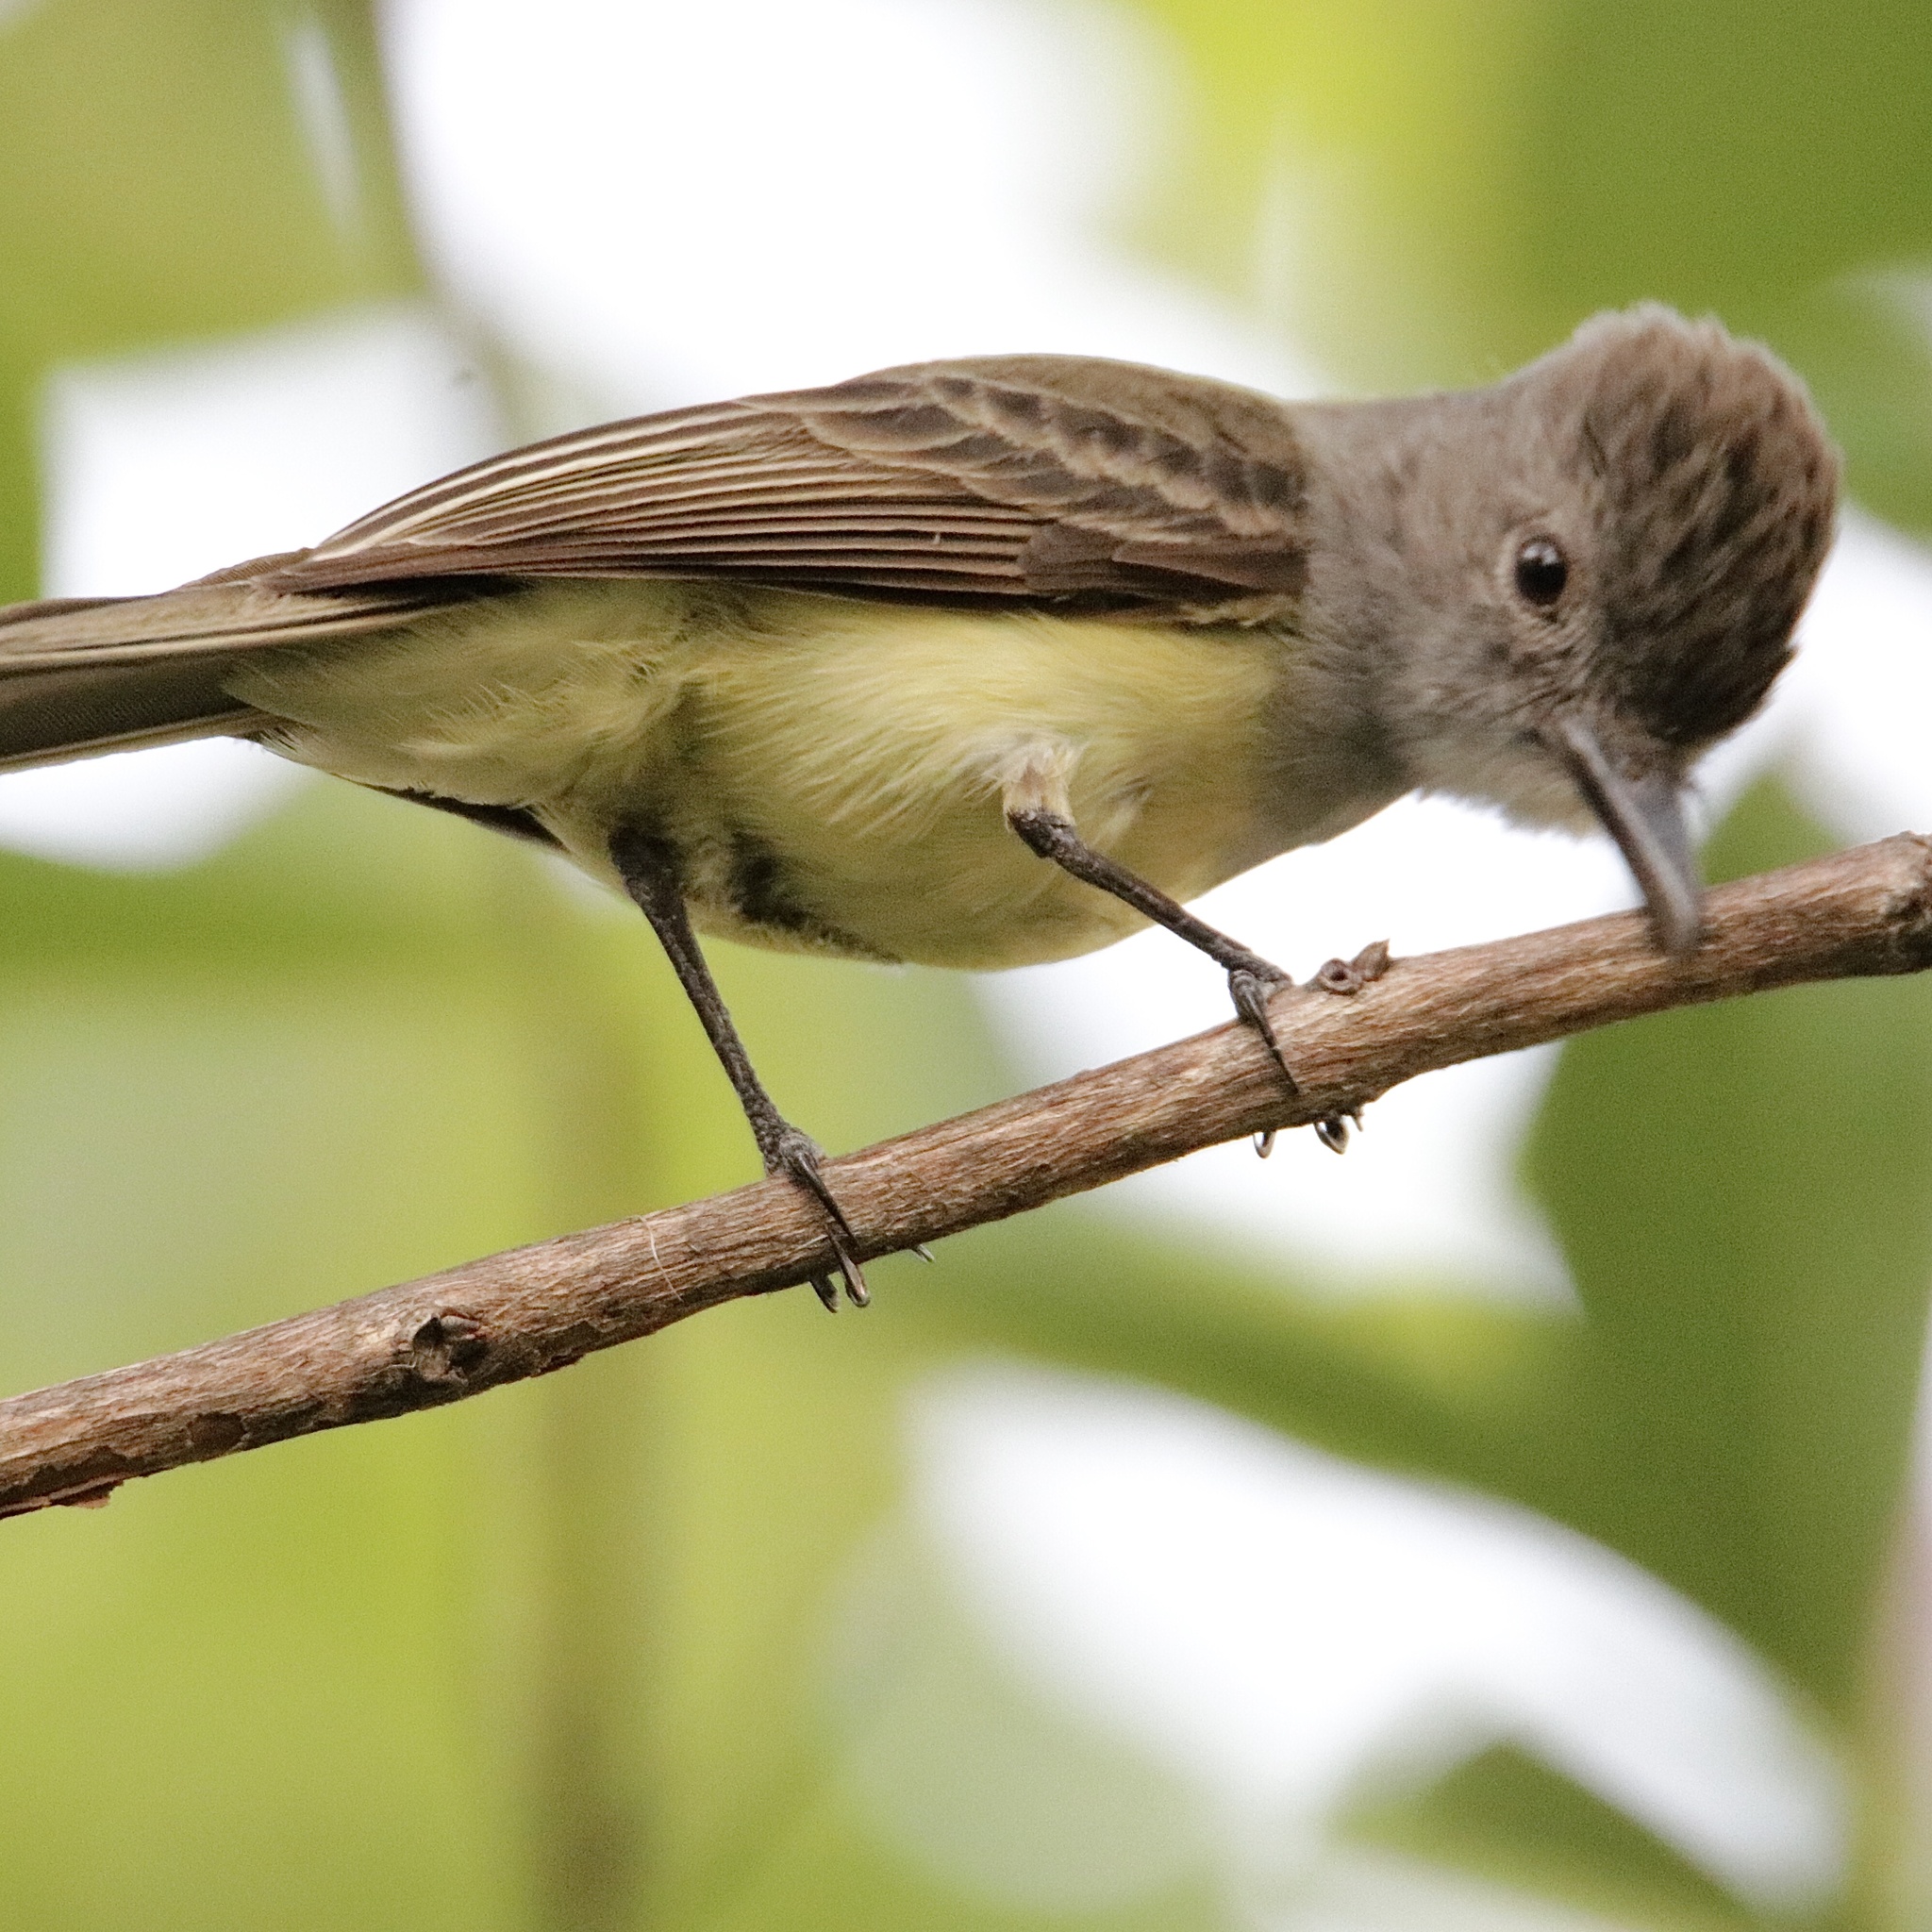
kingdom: Animalia
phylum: Chordata
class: Aves
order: Passeriformes
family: Tyrannidae
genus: Myiarchus
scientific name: Myiarchus panamensis
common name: Panama flycatcher
